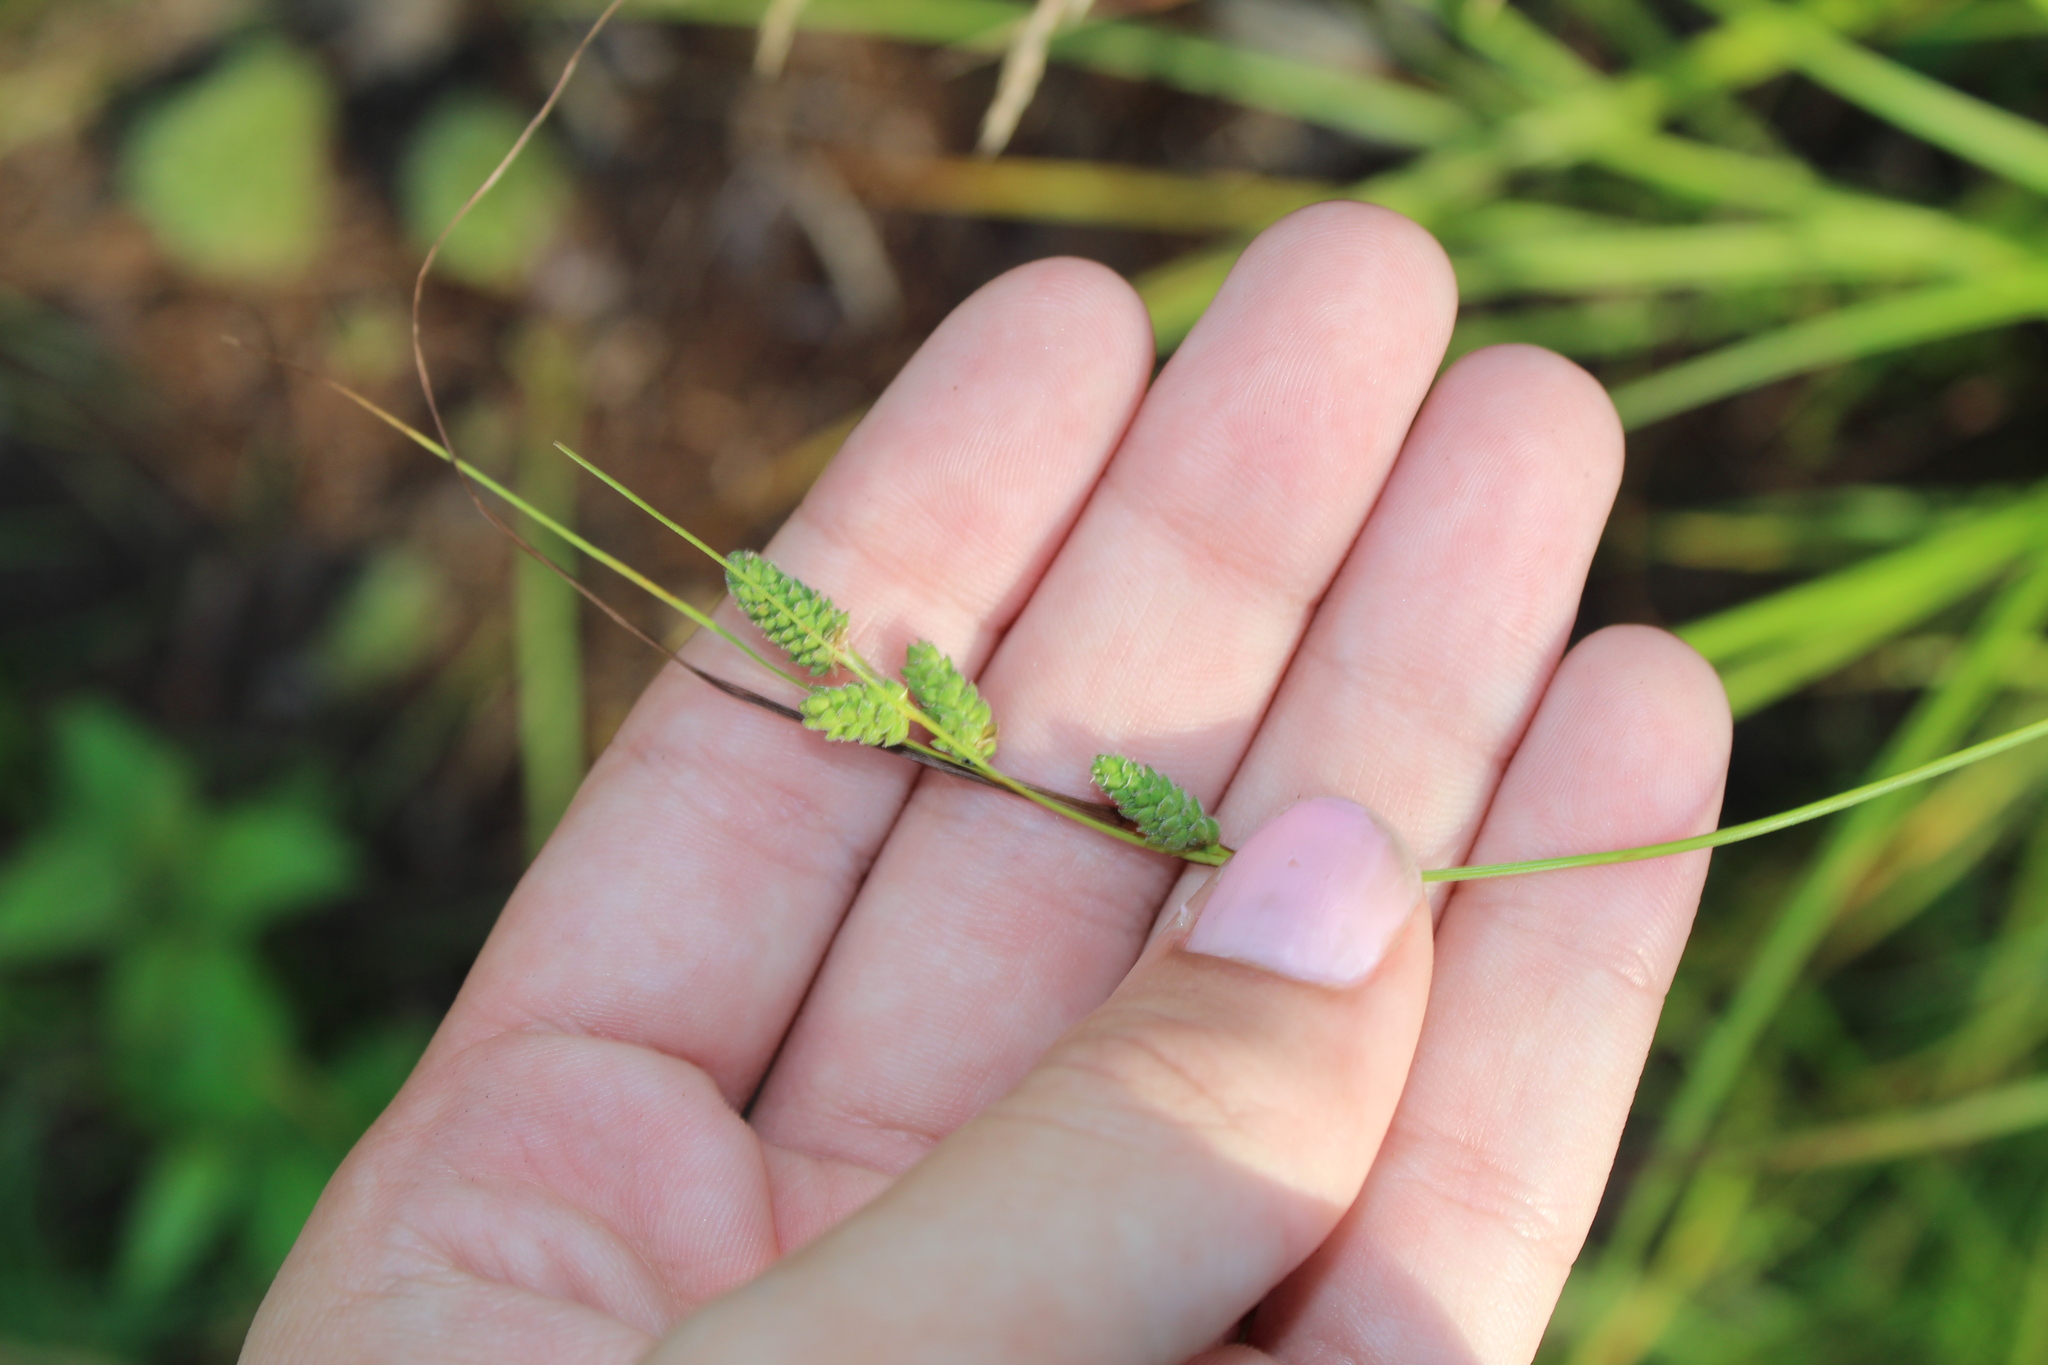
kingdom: Plantae
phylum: Tracheophyta
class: Liliopsida
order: Poales
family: Cyperaceae
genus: Carex
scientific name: Carex swanii
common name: Downy green sedge
